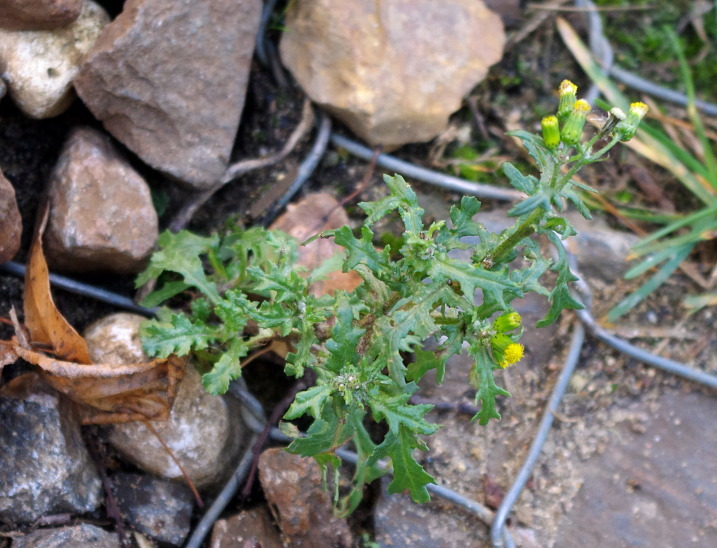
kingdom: Plantae
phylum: Tracheophyta
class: Magnoliopsida
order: Asterales
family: Asteraceae
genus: Senecio
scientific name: Senecio vulgaris
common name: Old-man-in-the-spring
